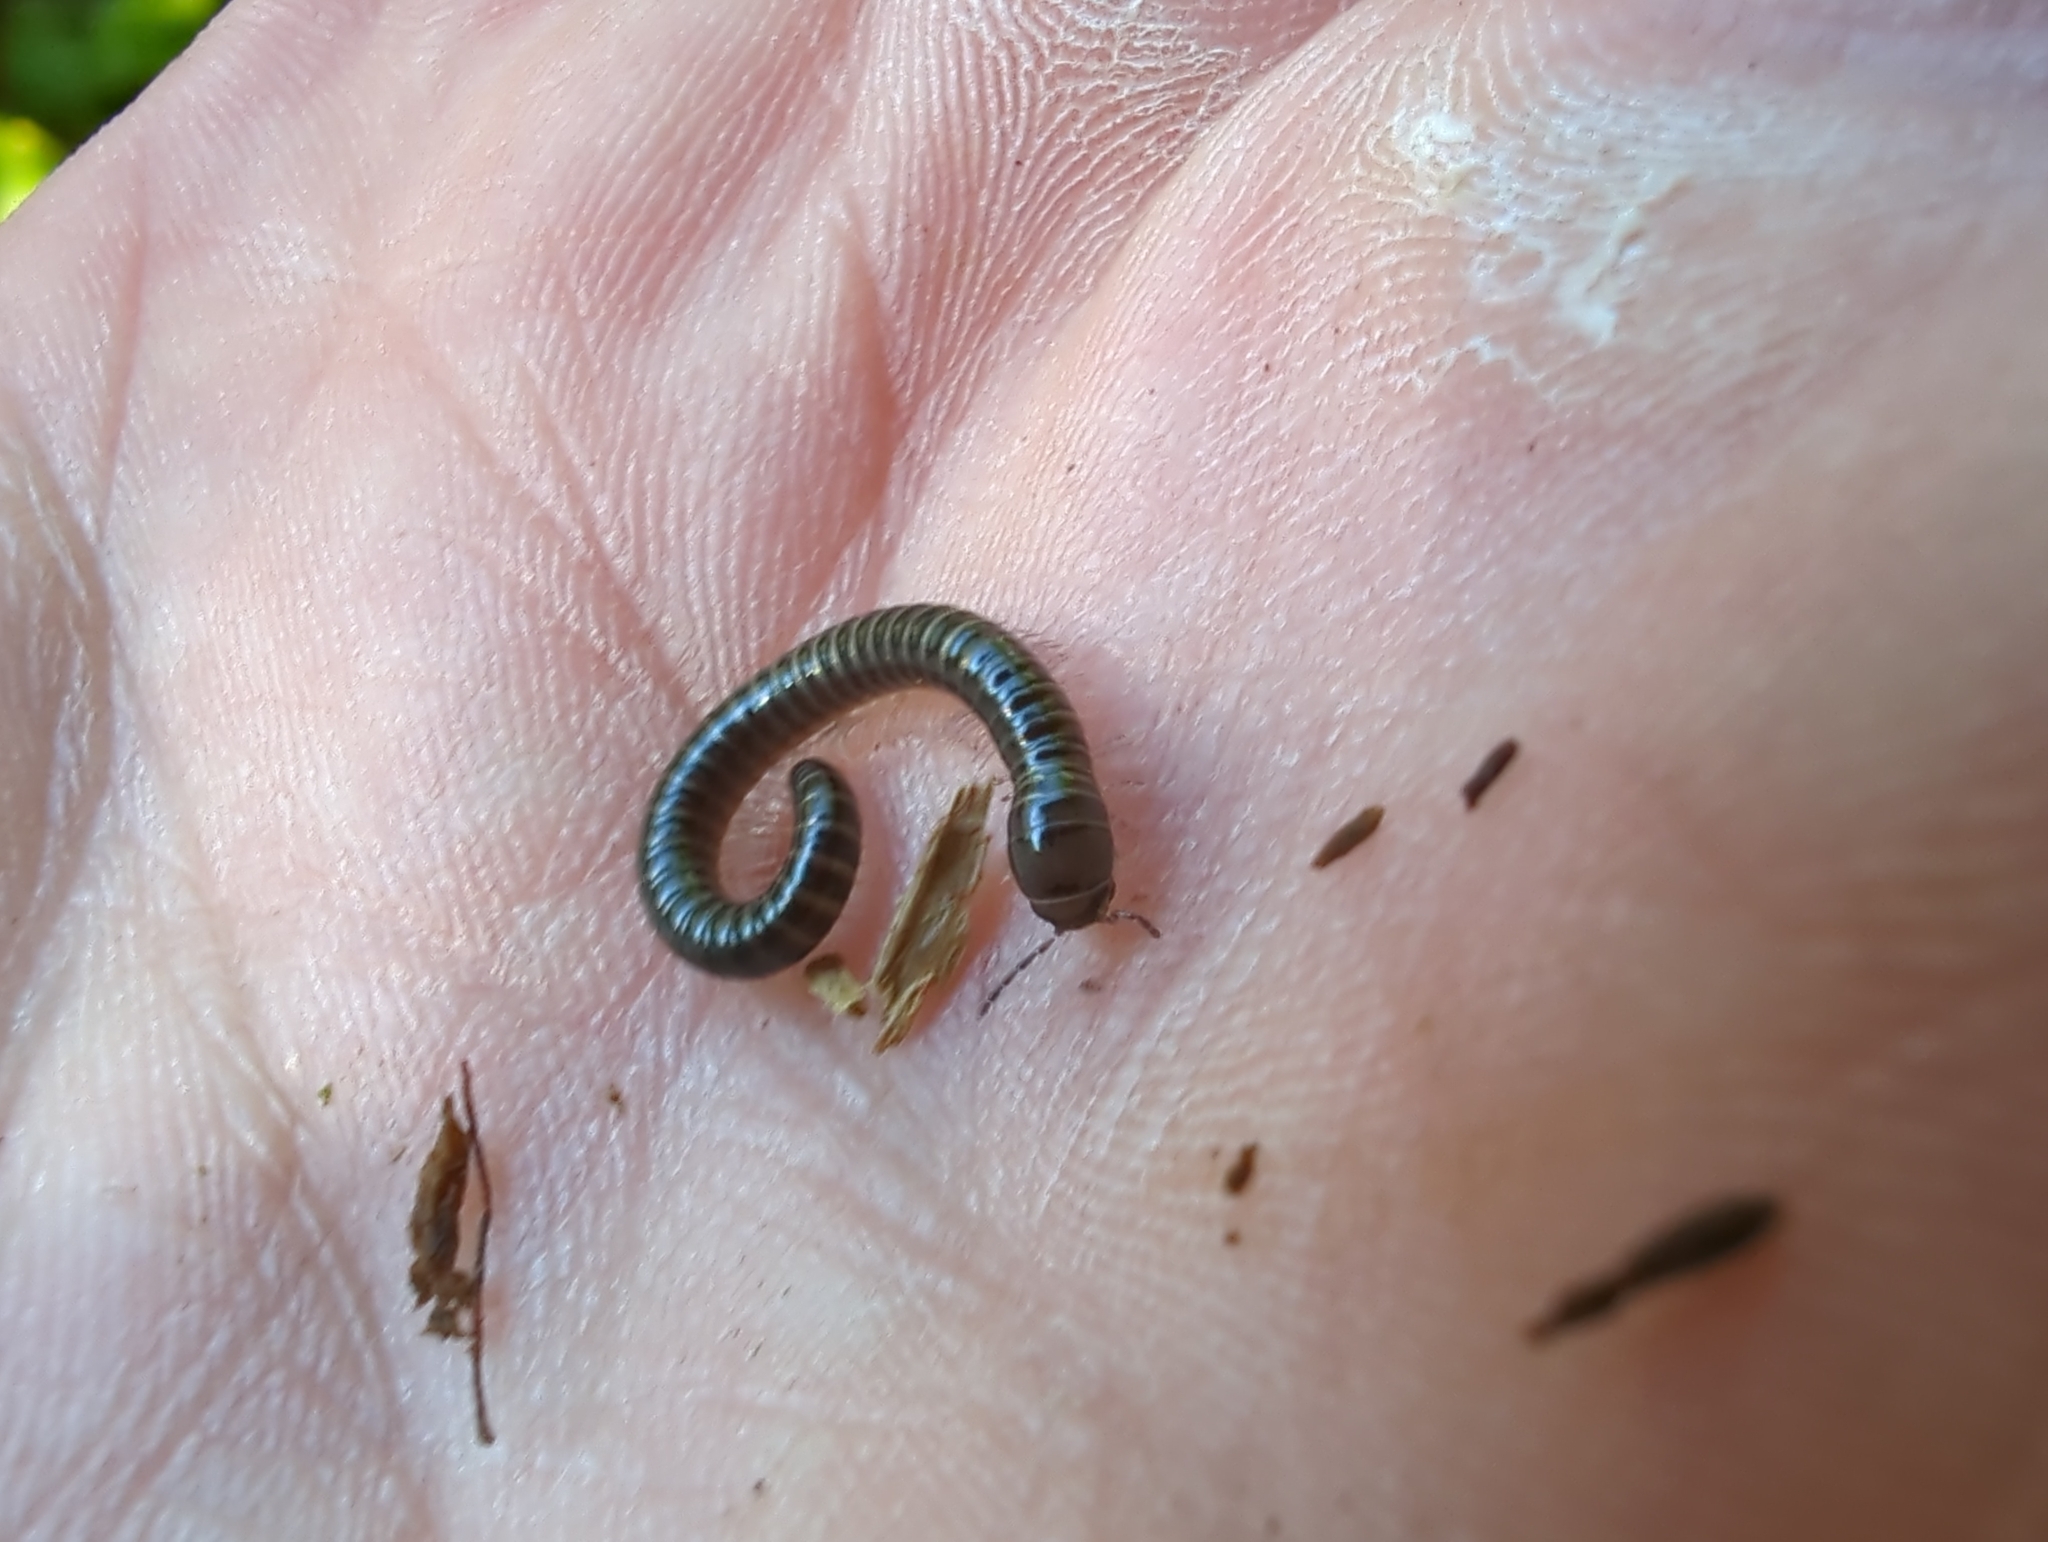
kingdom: Animalia
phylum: Arthropoda
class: Diplopoda
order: Julida
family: Parajulidae
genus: Litiulus
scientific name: Litiulus alaskanus
